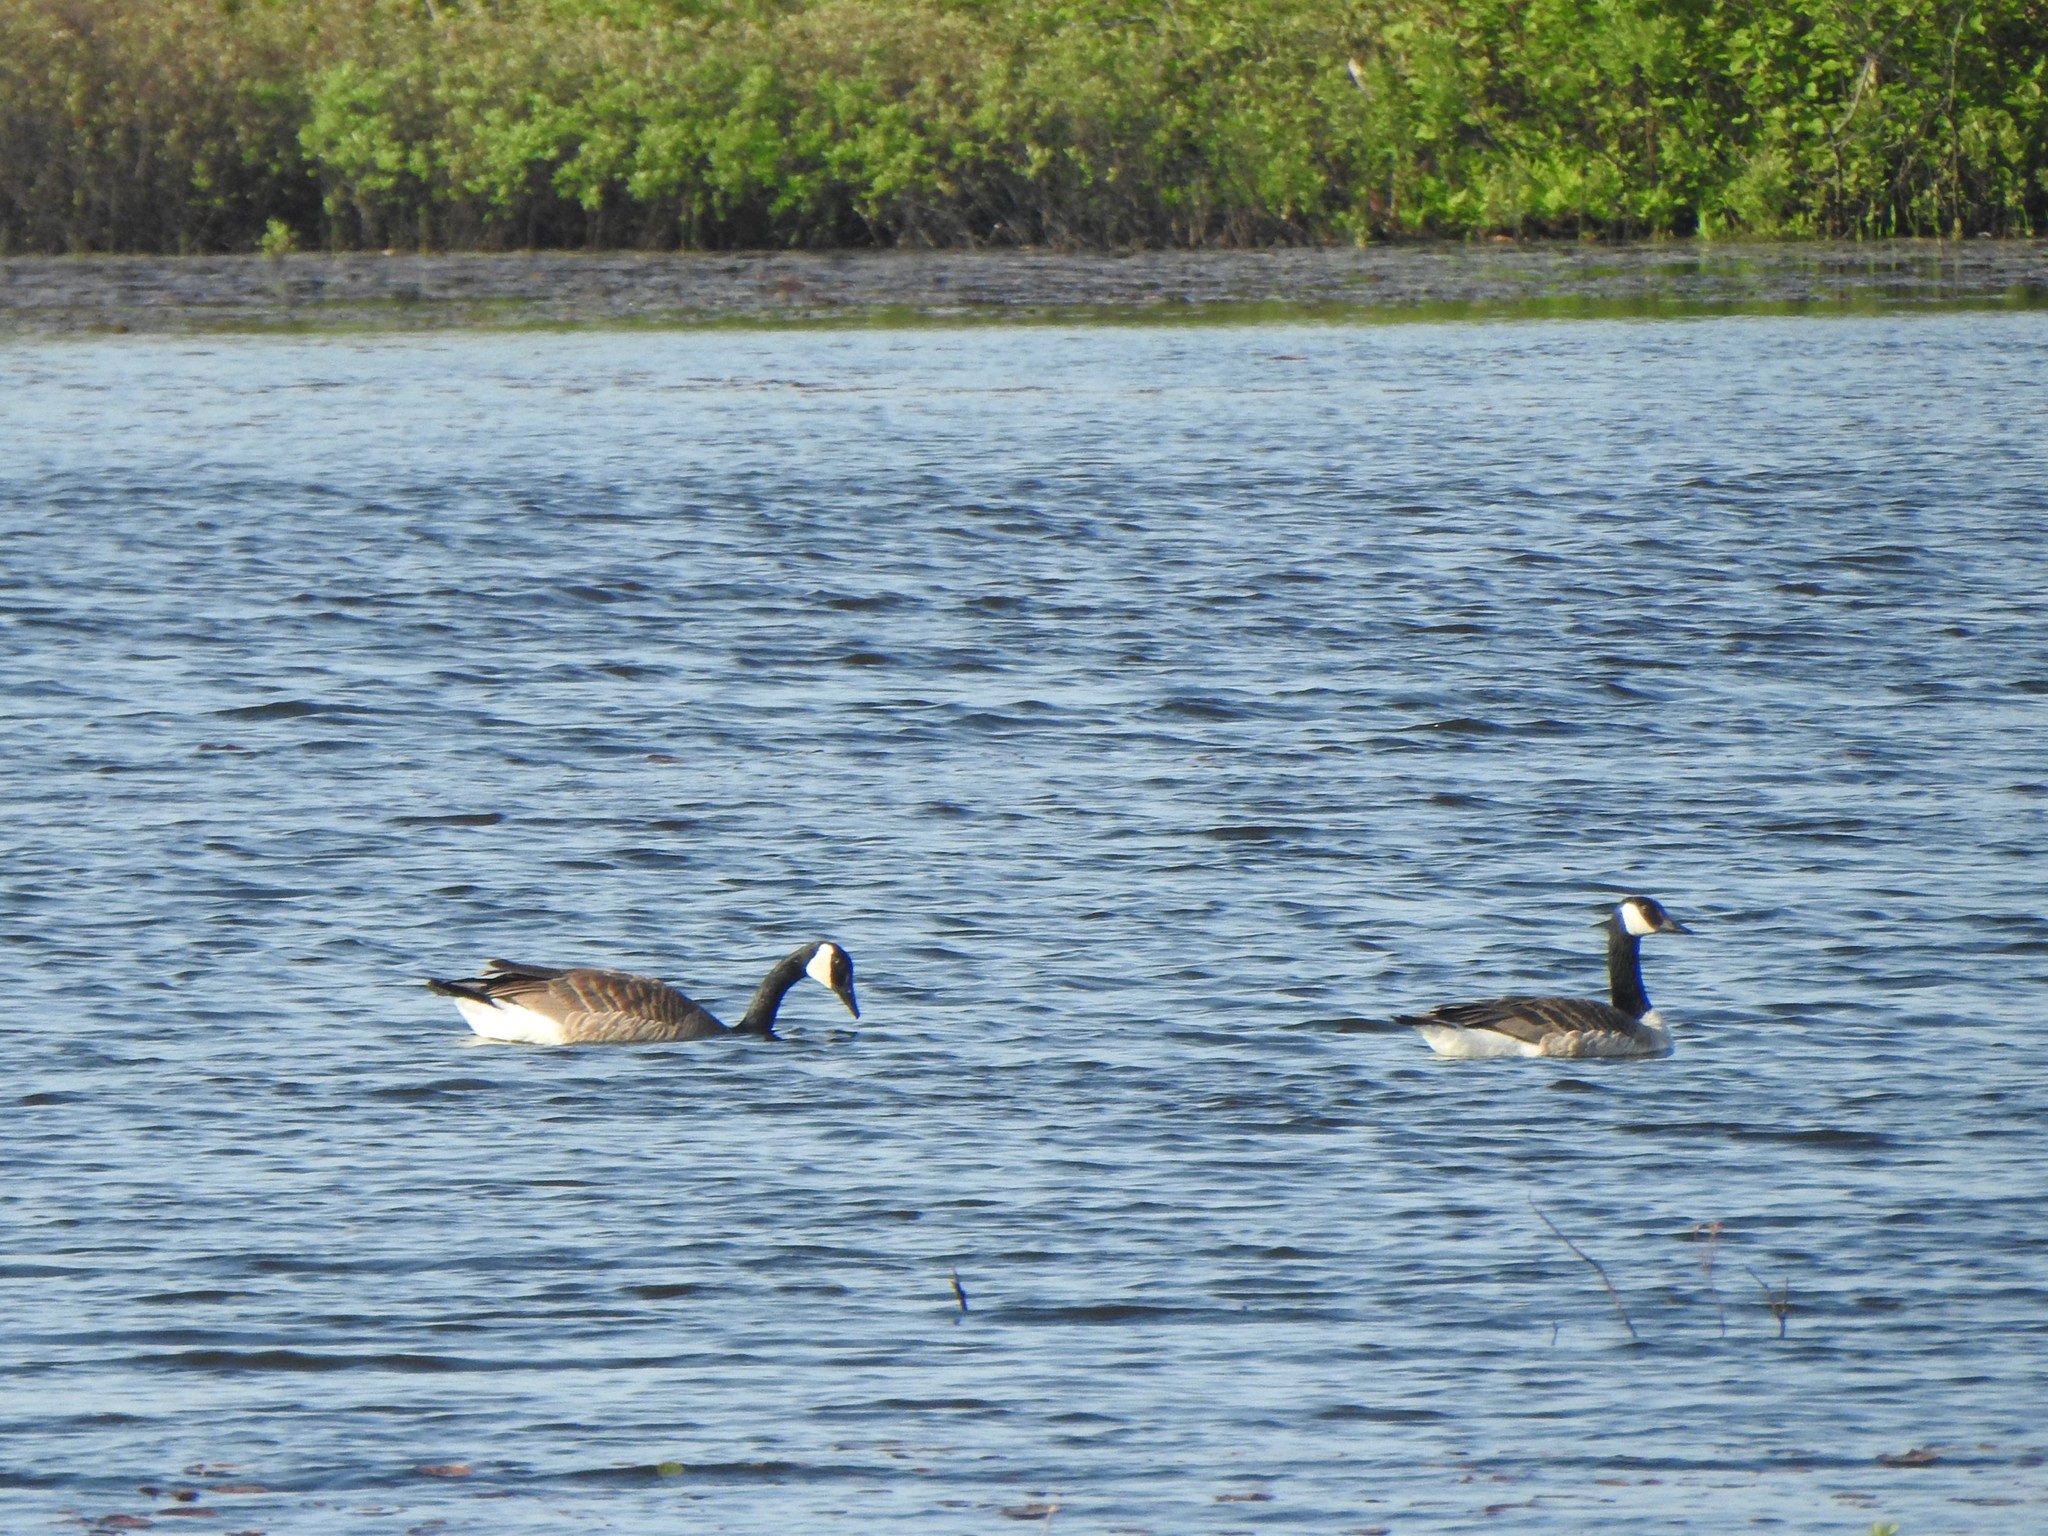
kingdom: Animalia
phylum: Chordata
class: Aves
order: Anseriformes
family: Anatidae
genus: Branta
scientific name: Branta canadensis
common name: Canada goose
